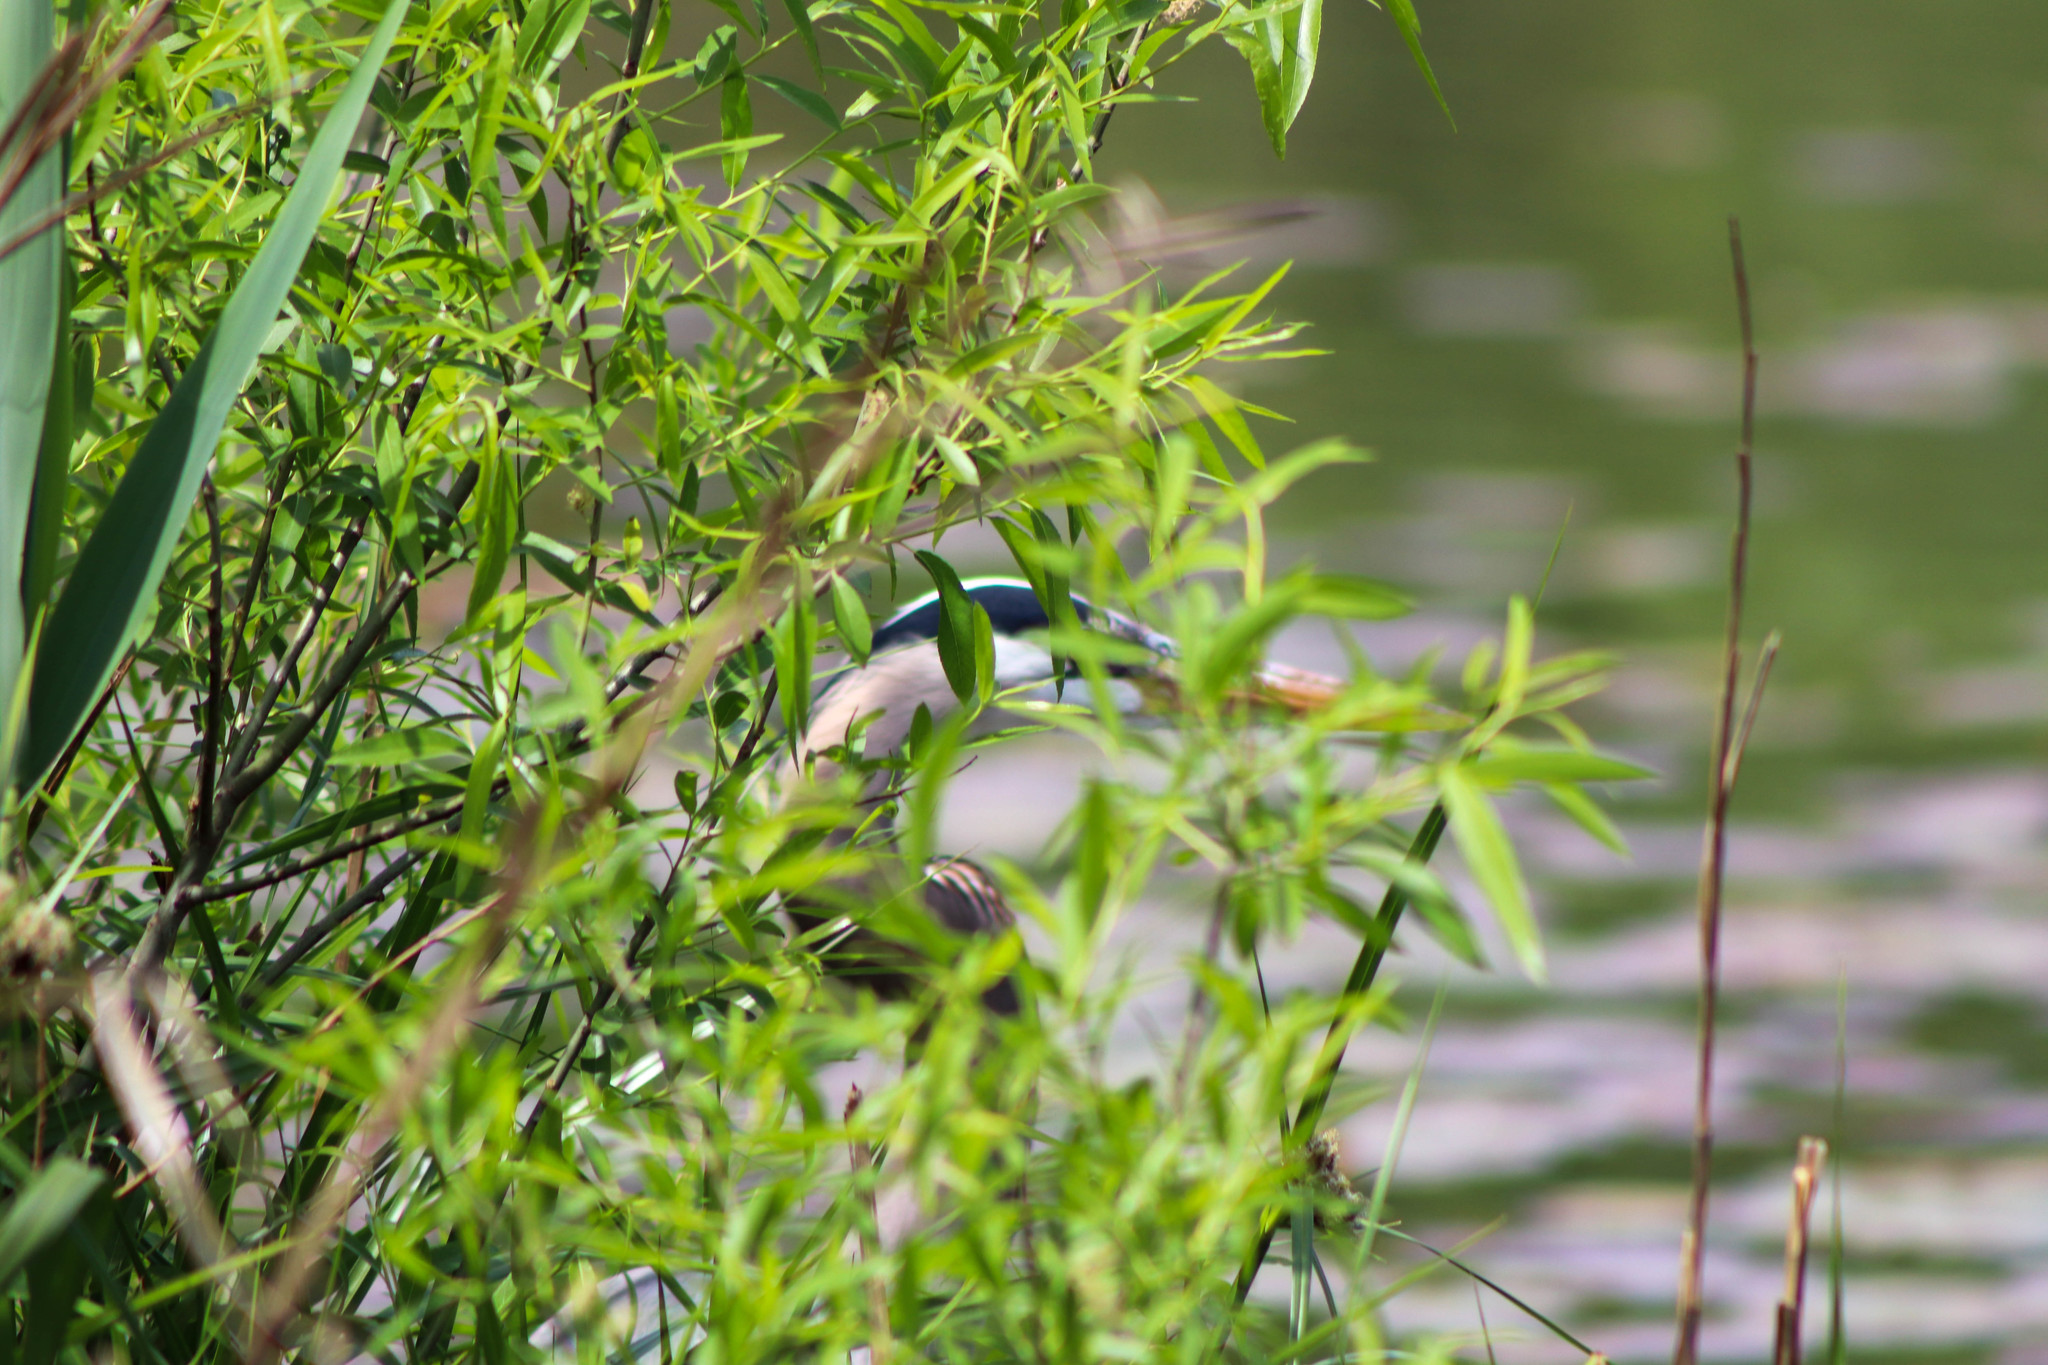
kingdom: Animalia
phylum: Chordata
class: Aves
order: Pelecaniformes
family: Ardeidae
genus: Ardea
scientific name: Ardea herodias
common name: Great blue heron
